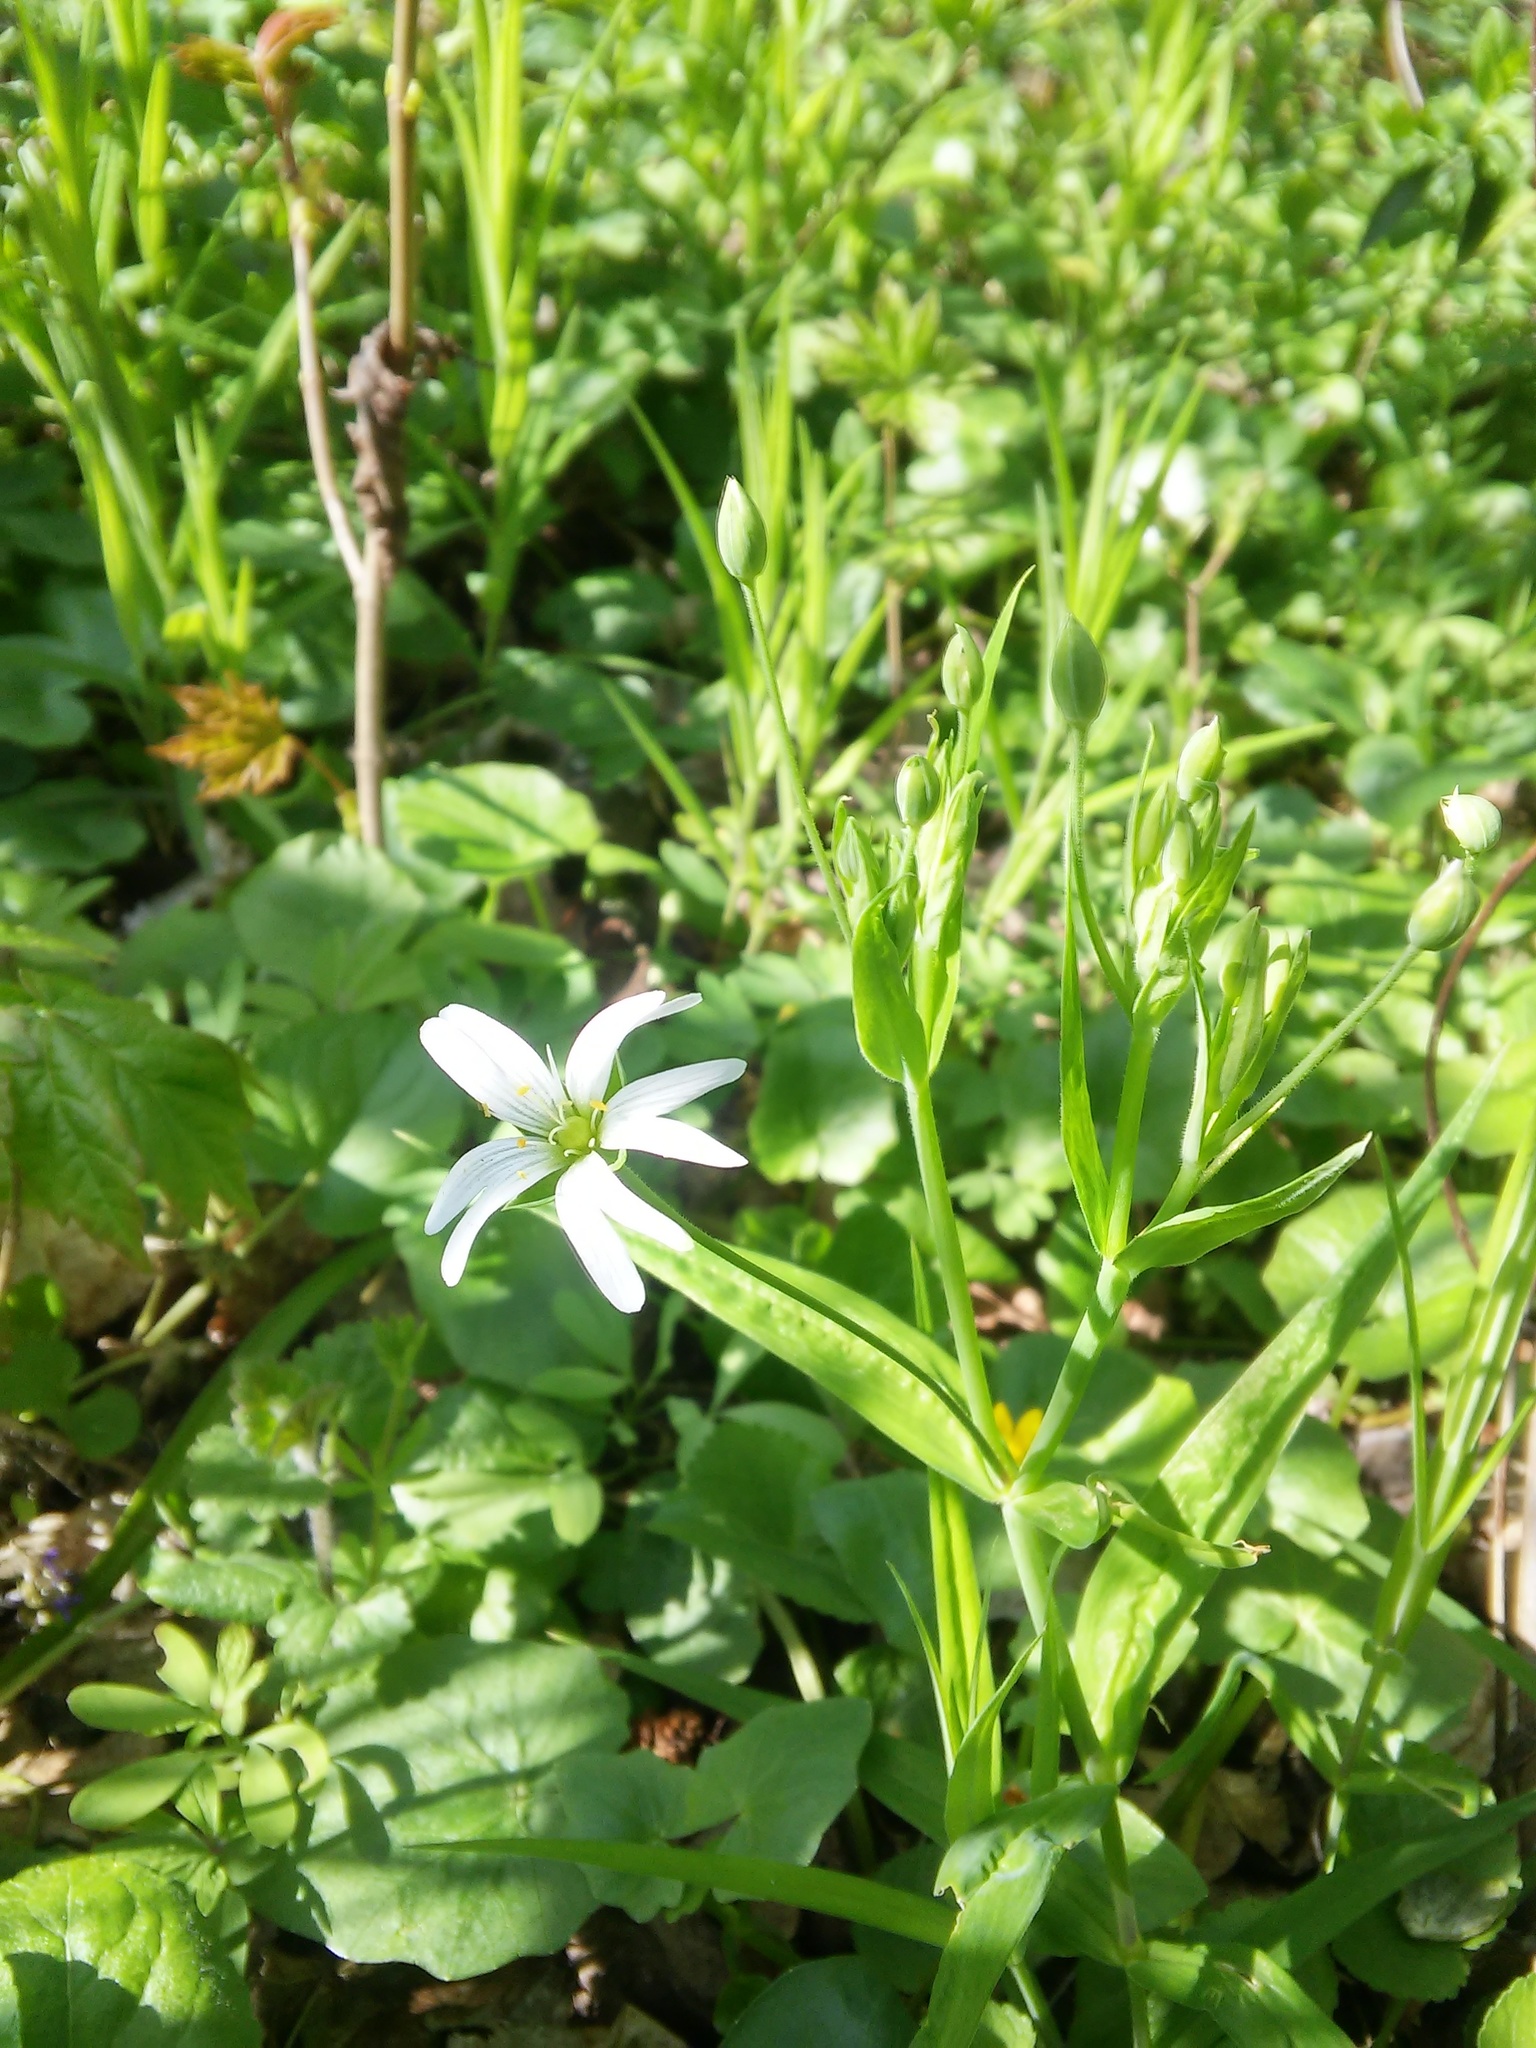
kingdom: Plantae
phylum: Tracheophyta
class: Magnoliopsida
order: Caryophyllales
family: Caryophyllaceae
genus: Rabelera
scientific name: Rabelera holostea
